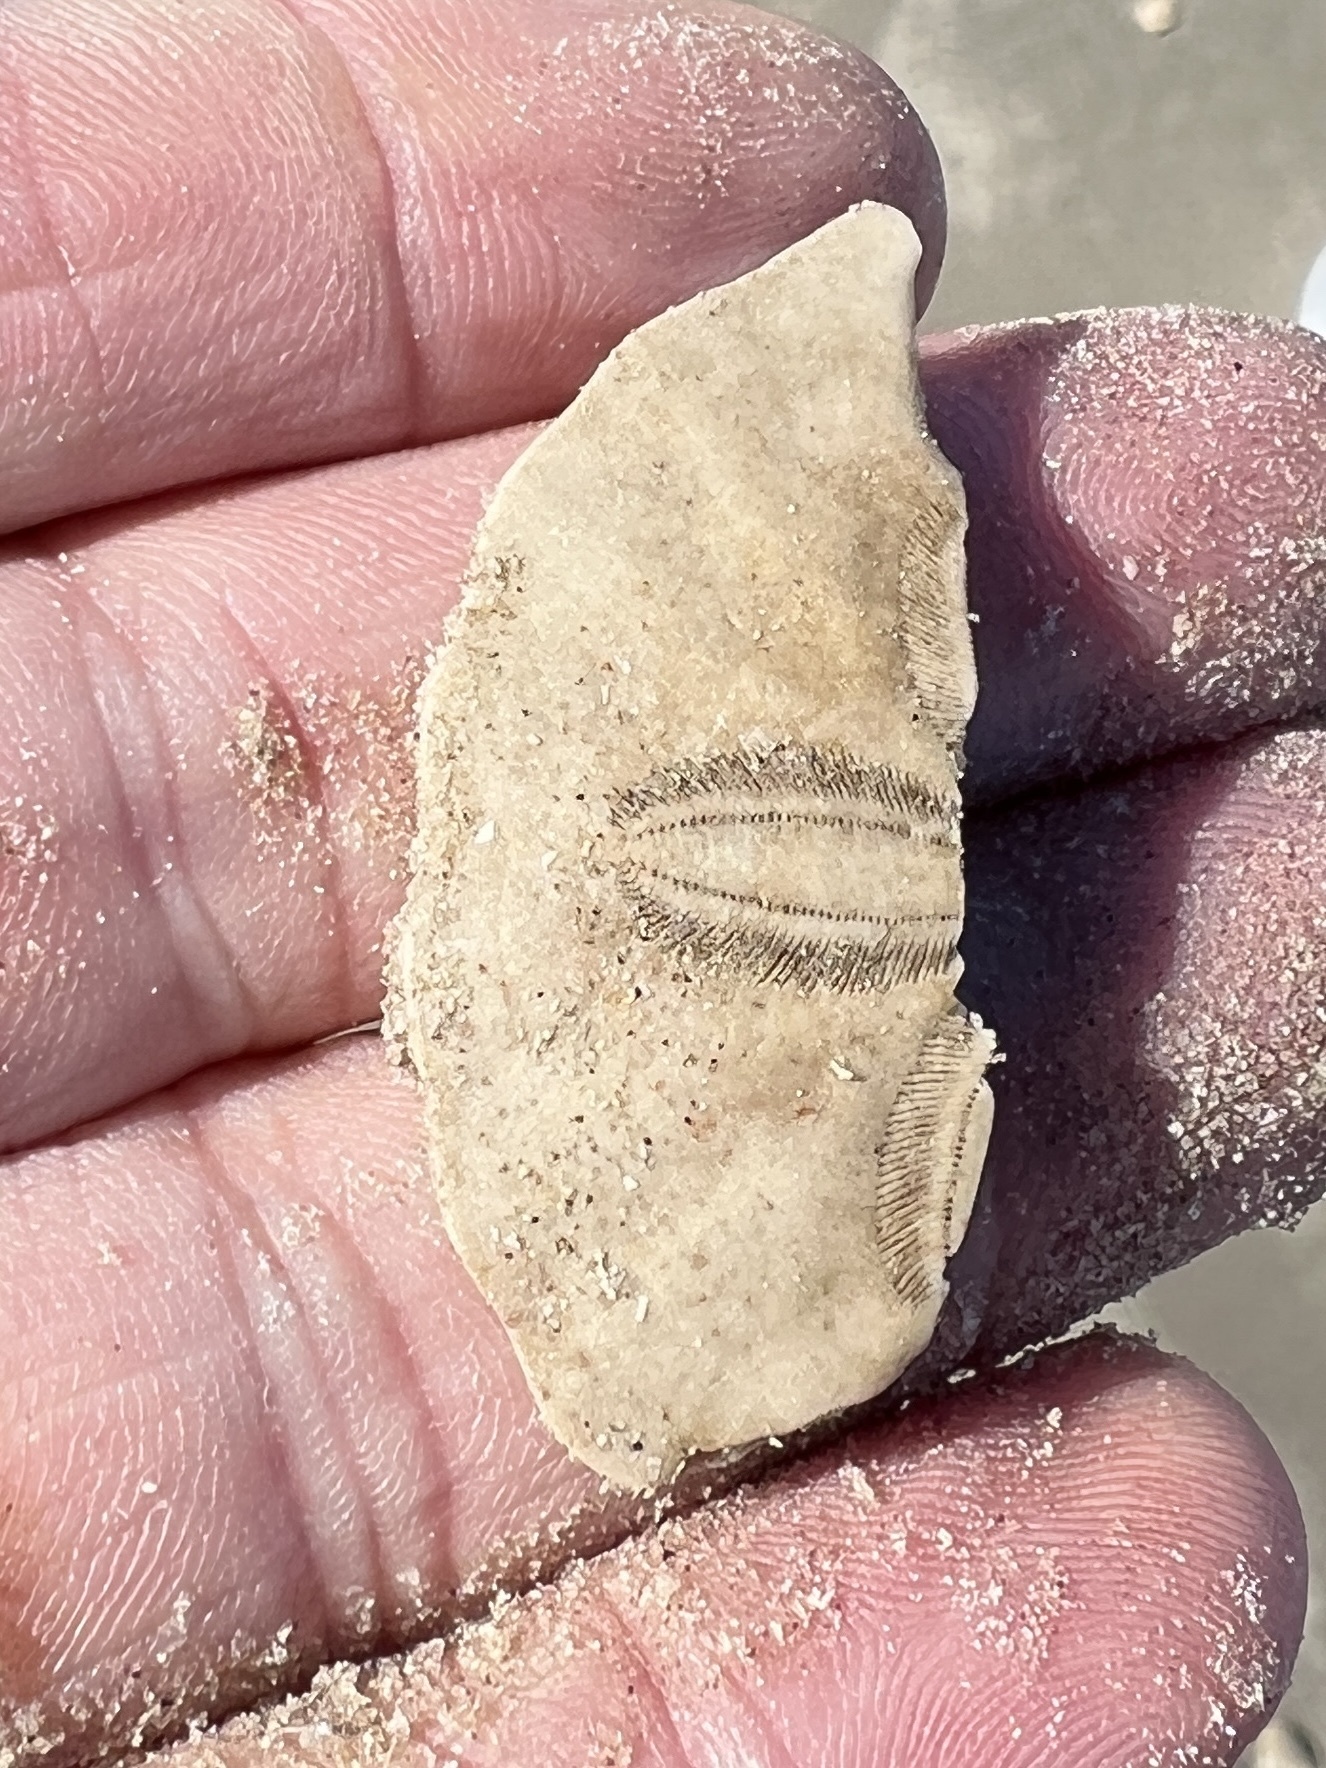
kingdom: Animalia
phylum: Echinodermata
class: Echinoidea
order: Echinolampadacea
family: Mellitidae
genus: Mellita
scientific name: Mellita quinquiesperforata
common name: Sand dollar
